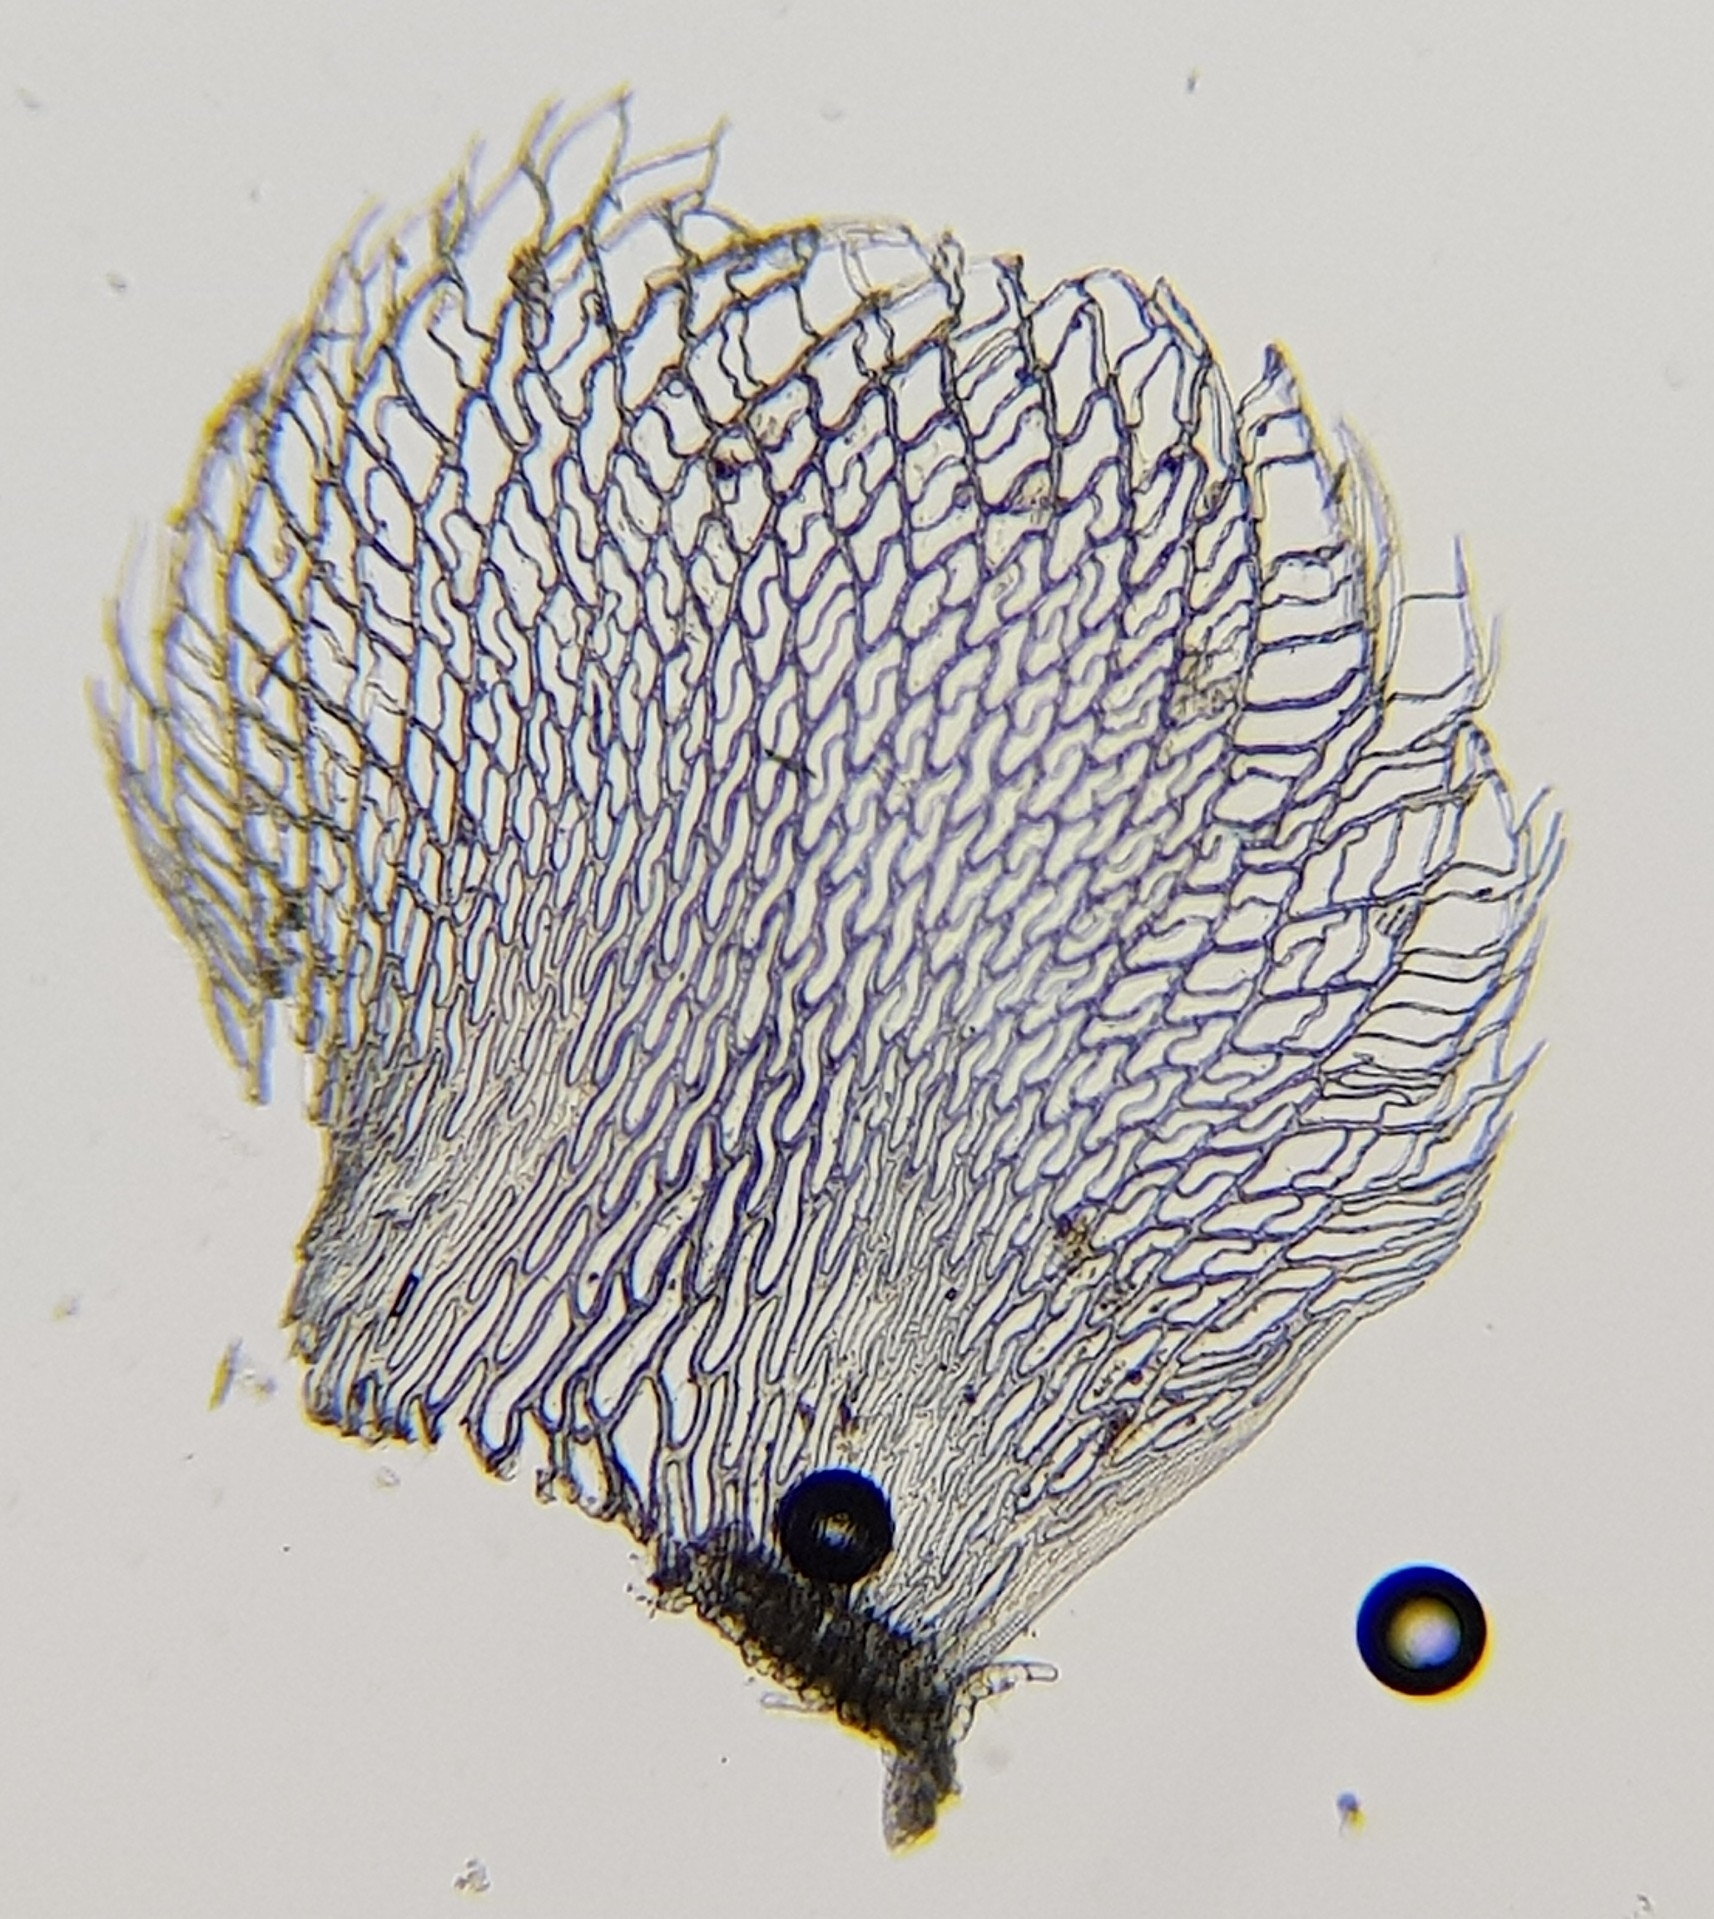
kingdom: Plantae
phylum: Bryophyta
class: Sphagnopsida
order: Sphagnales
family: Sphagnaceae
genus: Sphagnum
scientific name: Sphagnum fimbriatum
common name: Fringed peat moss
